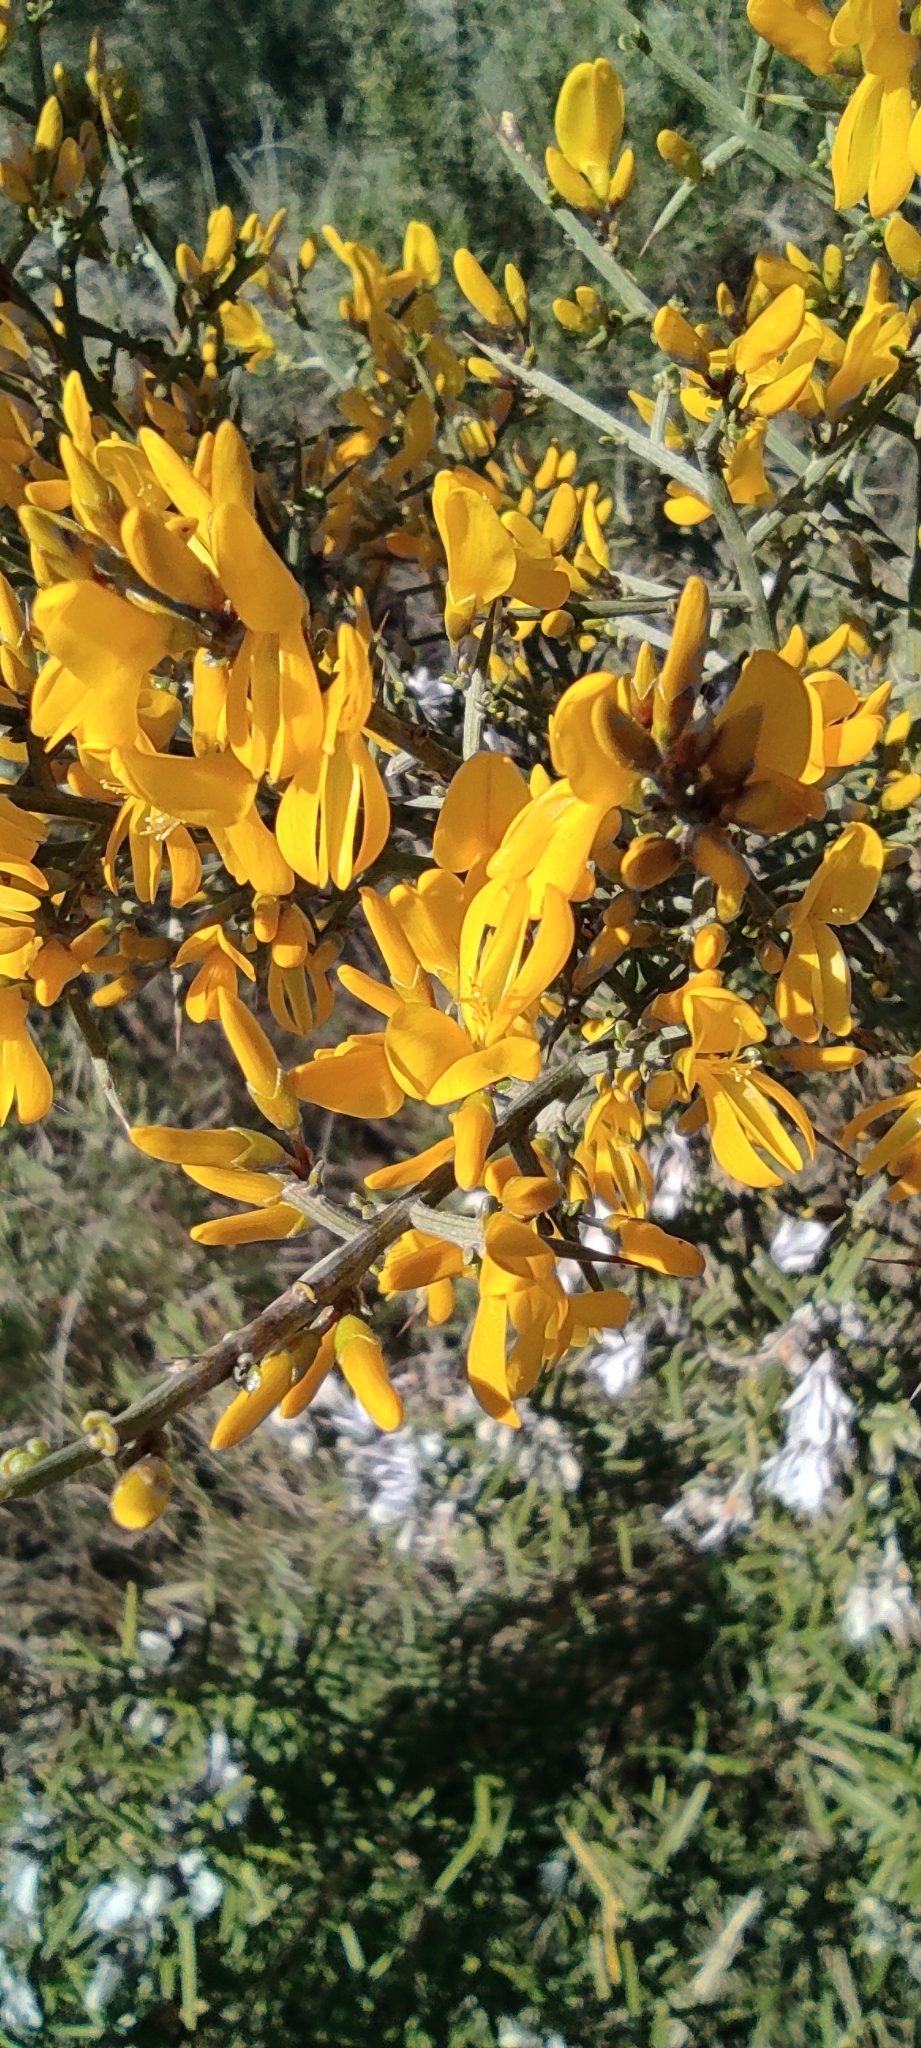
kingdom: Plantae
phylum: Tracheophyta
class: Magnoliopsida
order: Fabales
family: Fabaceae
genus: Genista
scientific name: Genista scorpius
